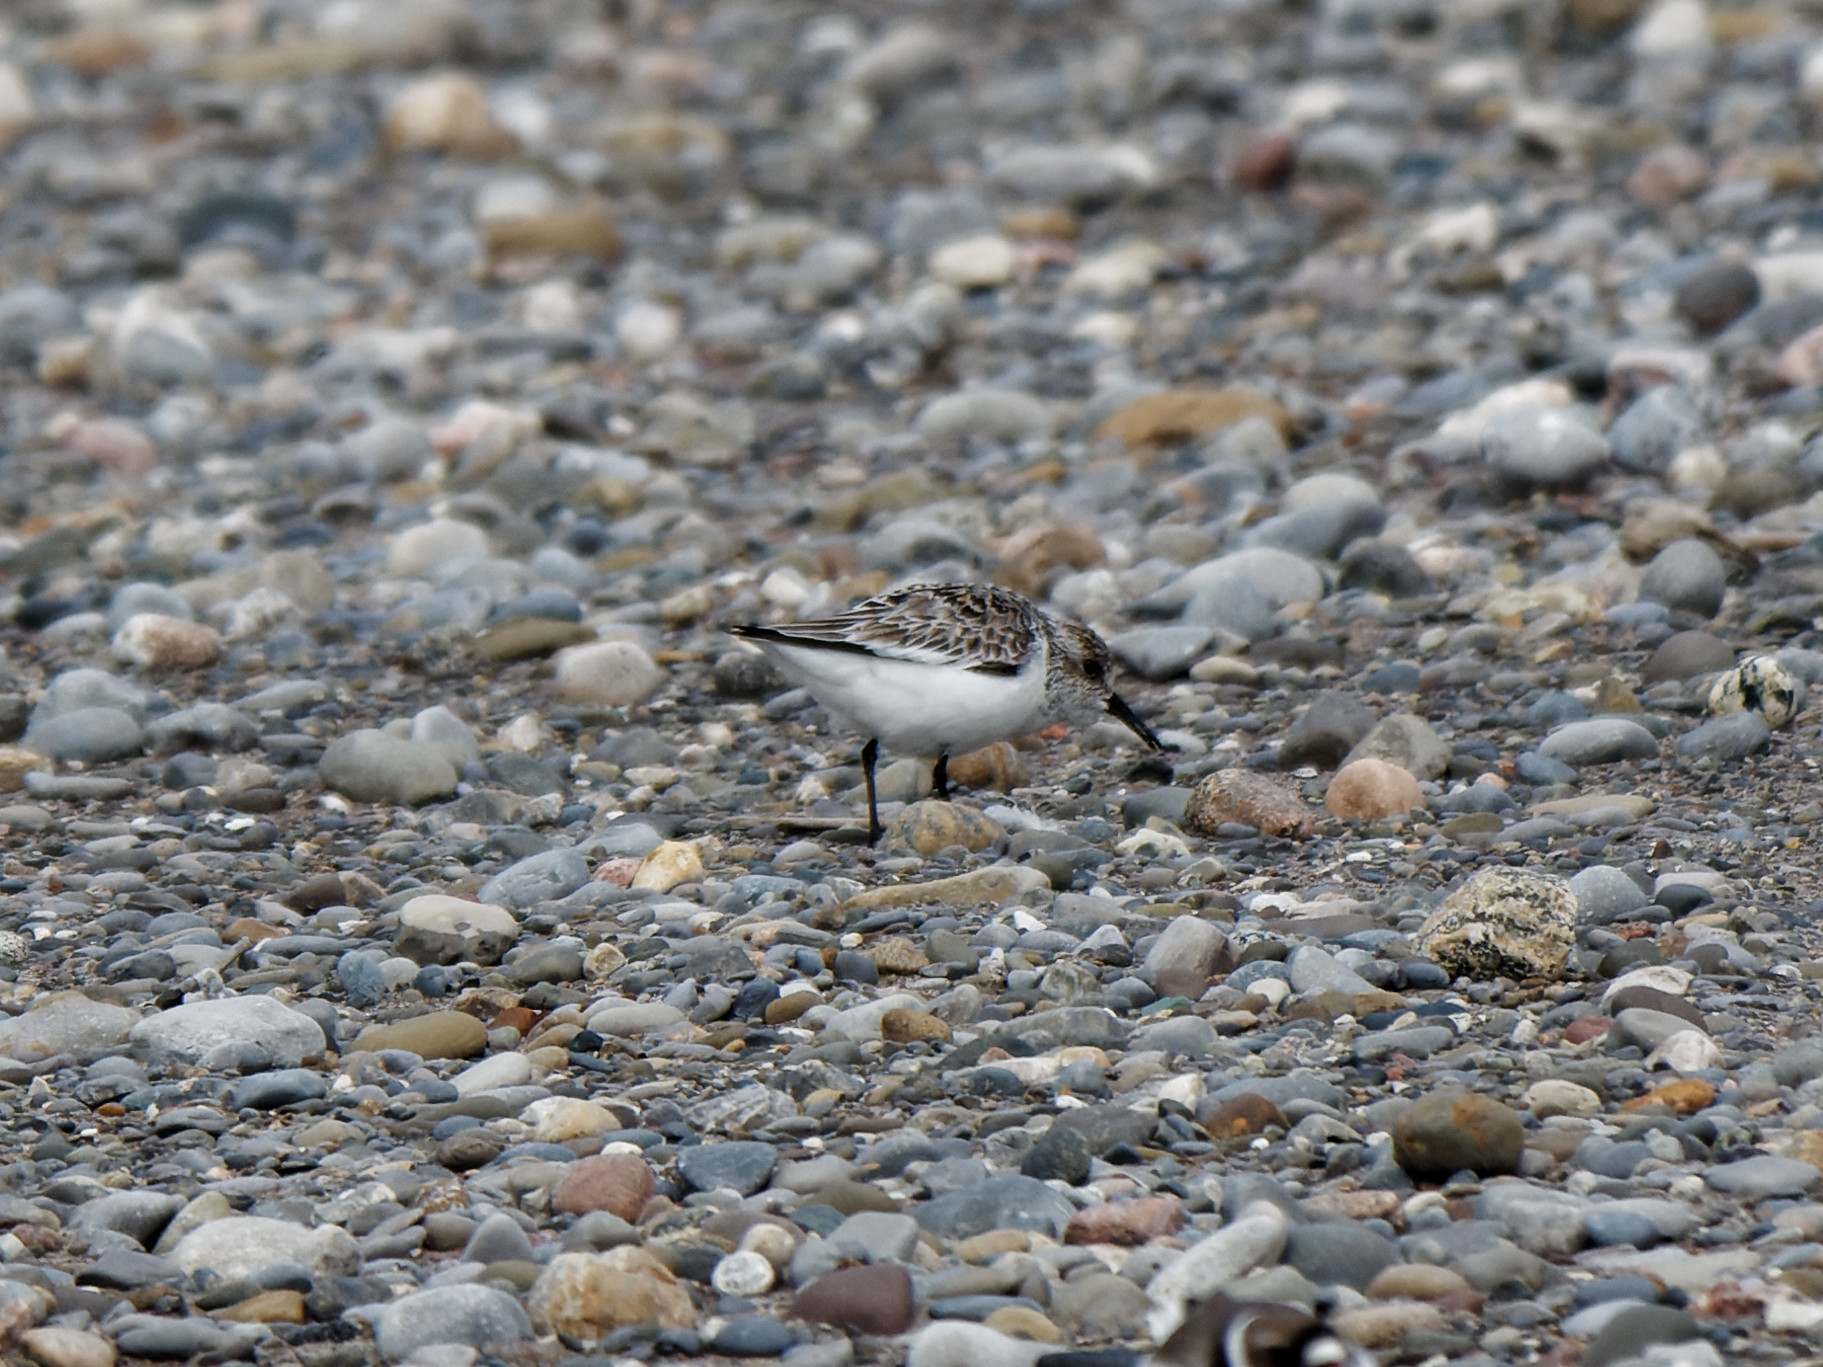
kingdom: Animalia
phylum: Chordata
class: Aves
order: Charadriiformes
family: Scolopacidae
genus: Calidris
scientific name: Calidris alba
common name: Sanderling
